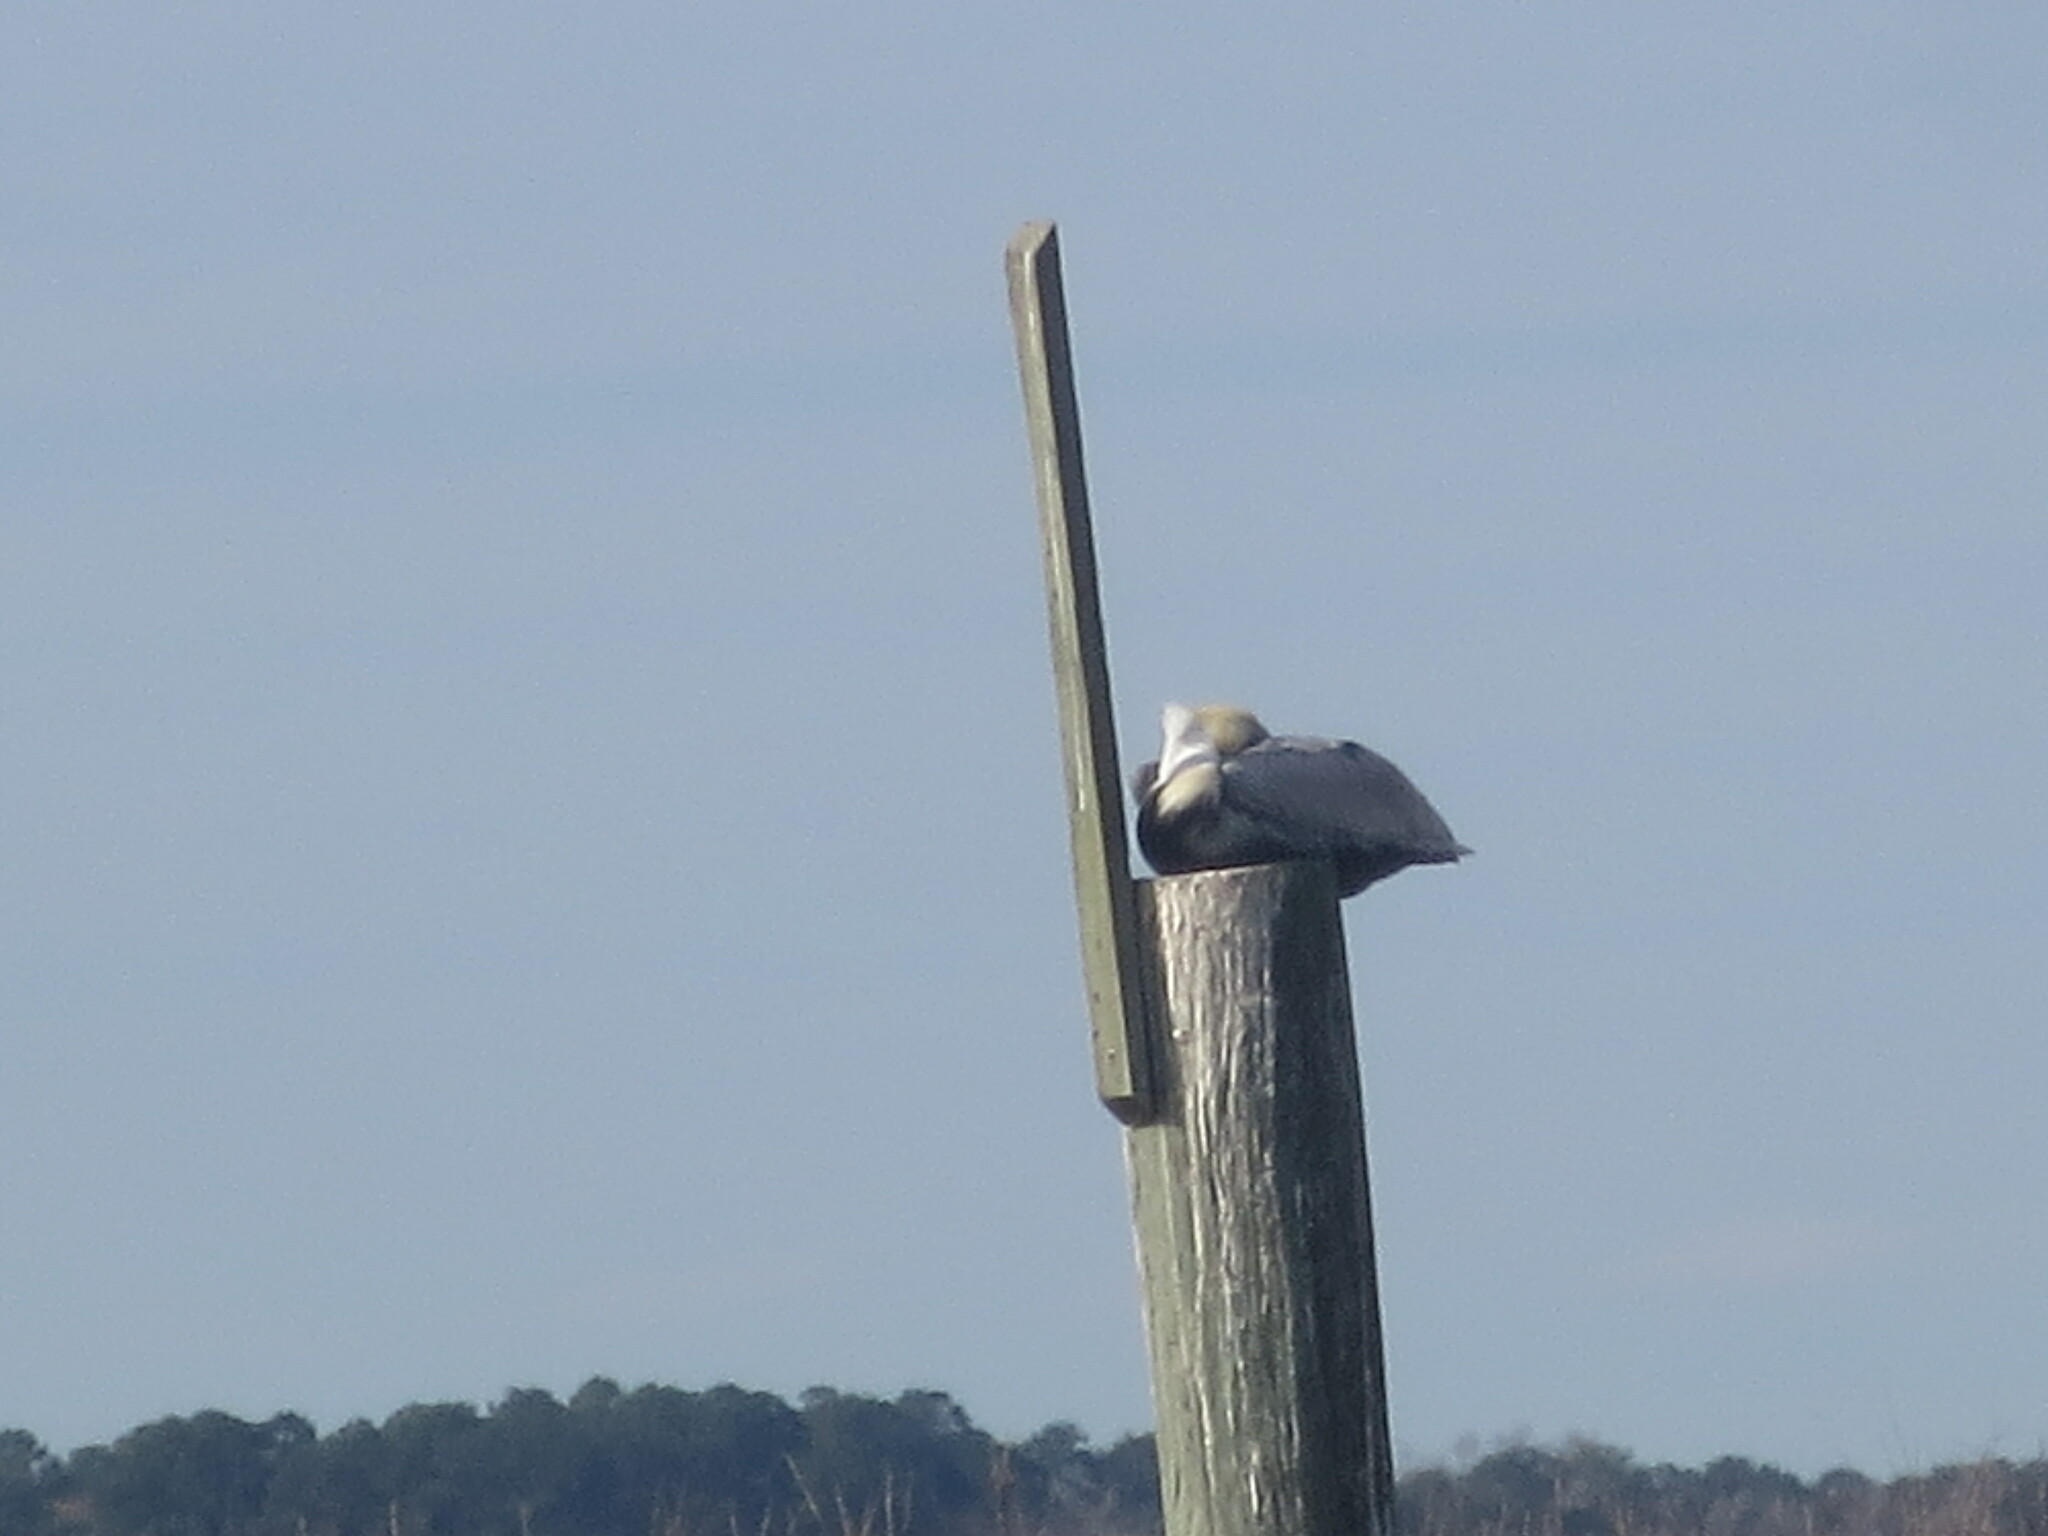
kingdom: Animalia
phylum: Chordata
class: Aves
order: Pelecaniformes
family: Pelecanidae
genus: Pelecanus
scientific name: Pelecanus occidentalis
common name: Brown pelican
